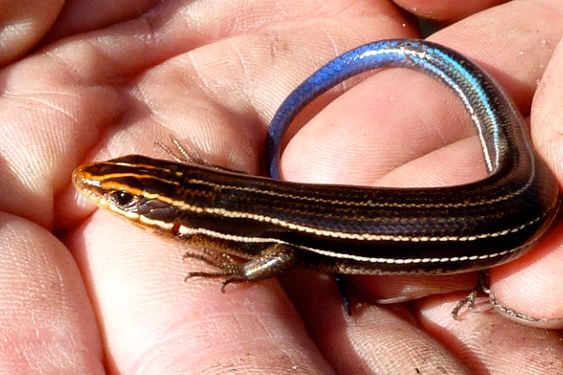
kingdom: Animalia
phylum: Chordata
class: Squamata
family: Scincidae
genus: Plestiodon
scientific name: Plestiodon inexpectatus
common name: Southeastern five-lined skink
